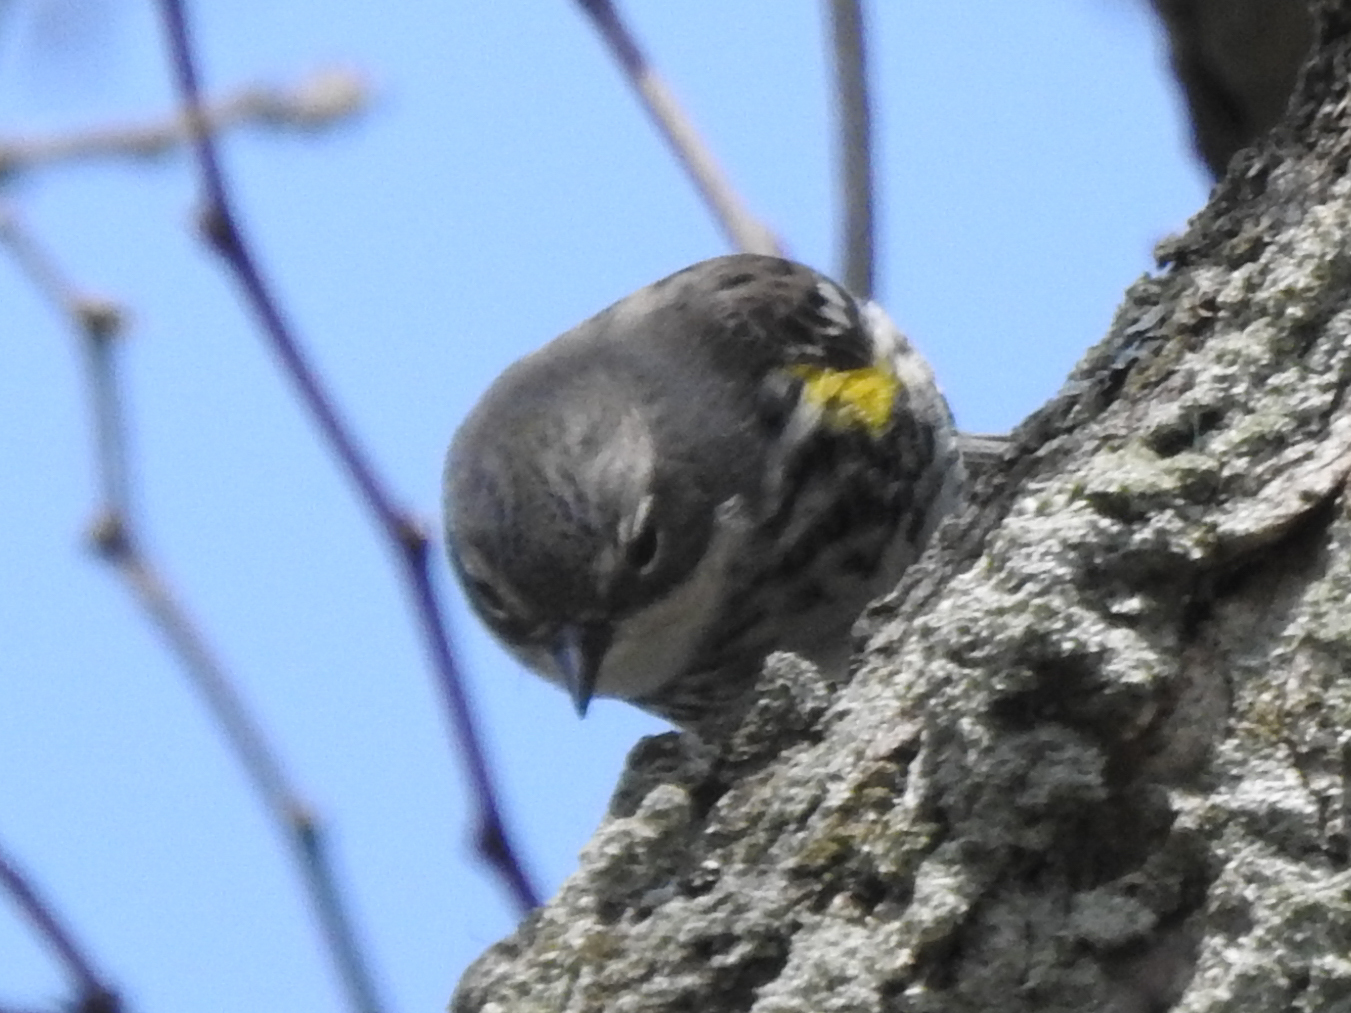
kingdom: Animalia
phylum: Chordata
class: Aves
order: Passeriformes
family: Parulidae
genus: Setophaga
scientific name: Setophaga coronata
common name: Myrtle warbler
